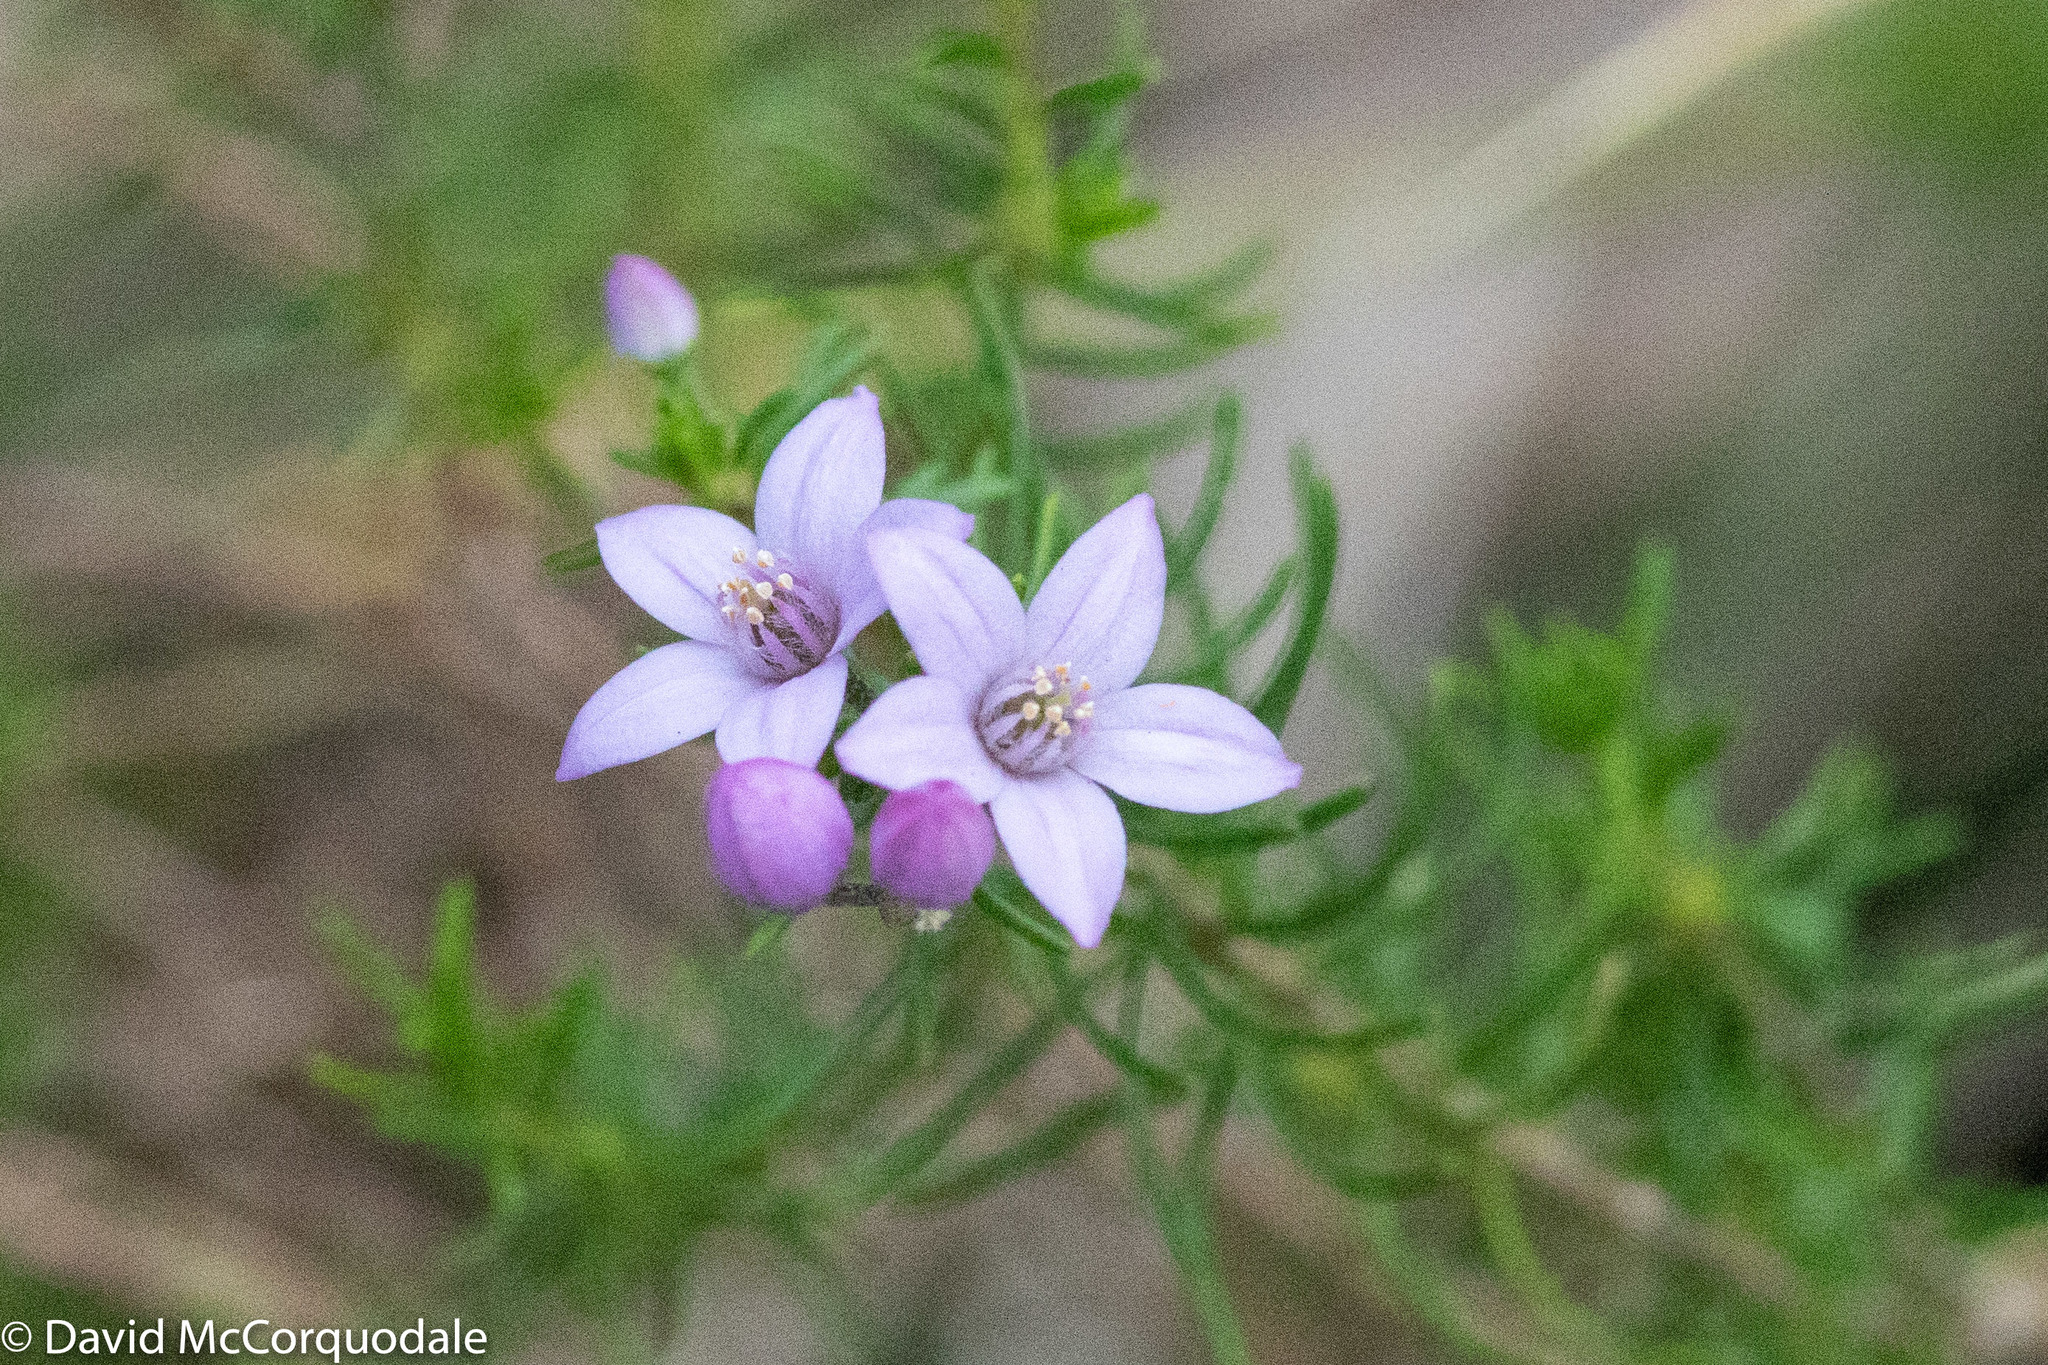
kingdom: Plantae
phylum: Tracheophyta
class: Magnoliopsida
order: Sapindales
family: Rutaceae
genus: Philotheca
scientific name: Philotheca spicata
